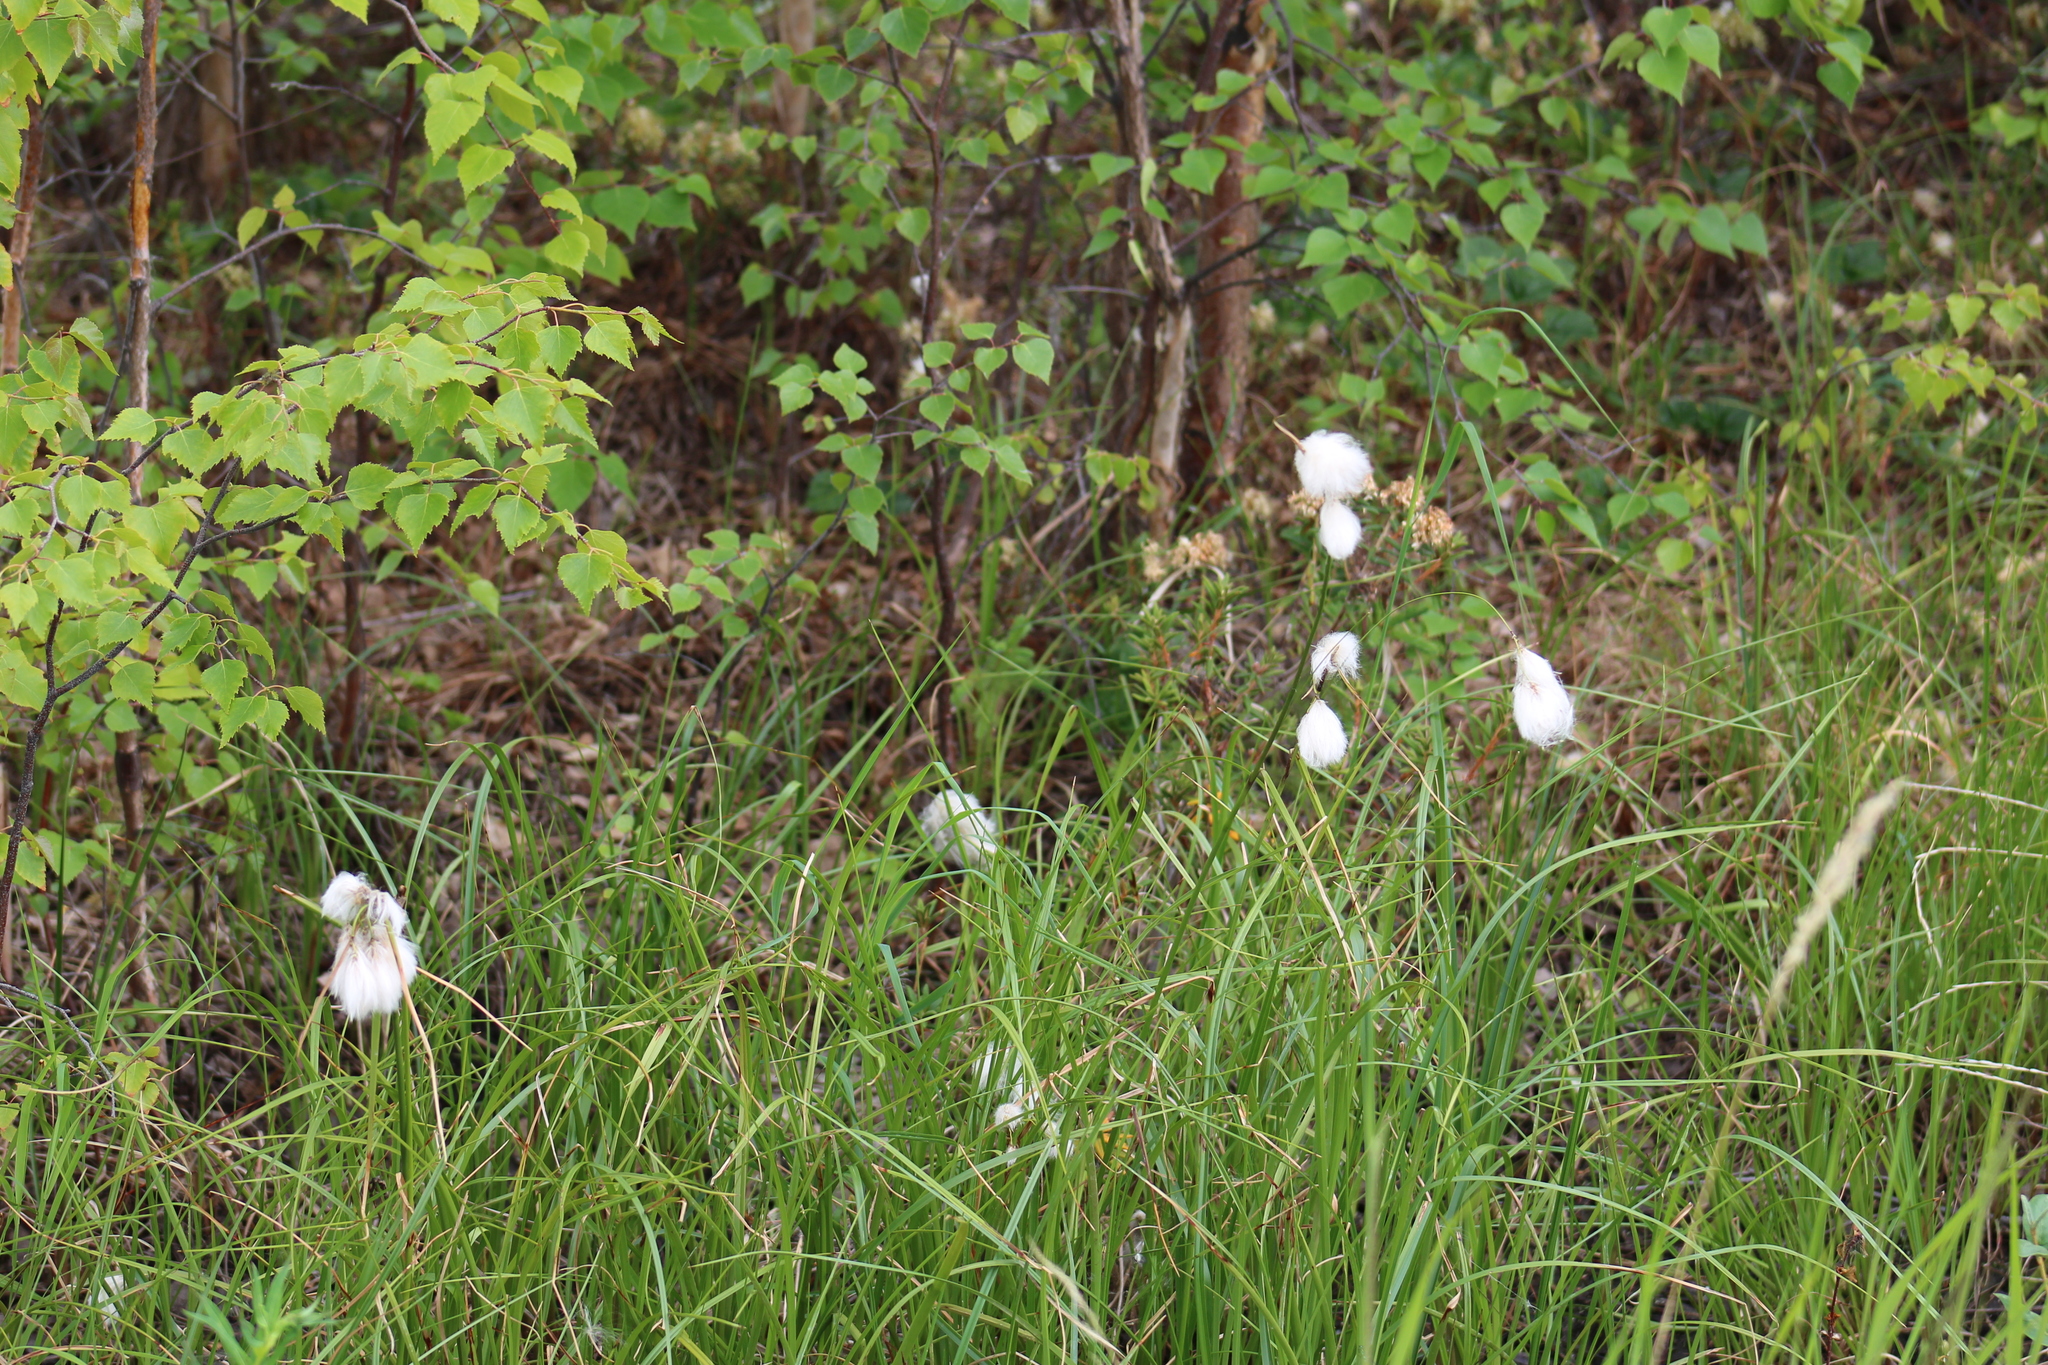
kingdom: Plantae
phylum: Tracheophyta
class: Liliopsida
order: Poales
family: Cyperaceae
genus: Eriophorum
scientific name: Eriophorum angustifolium
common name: Common cottongrass
